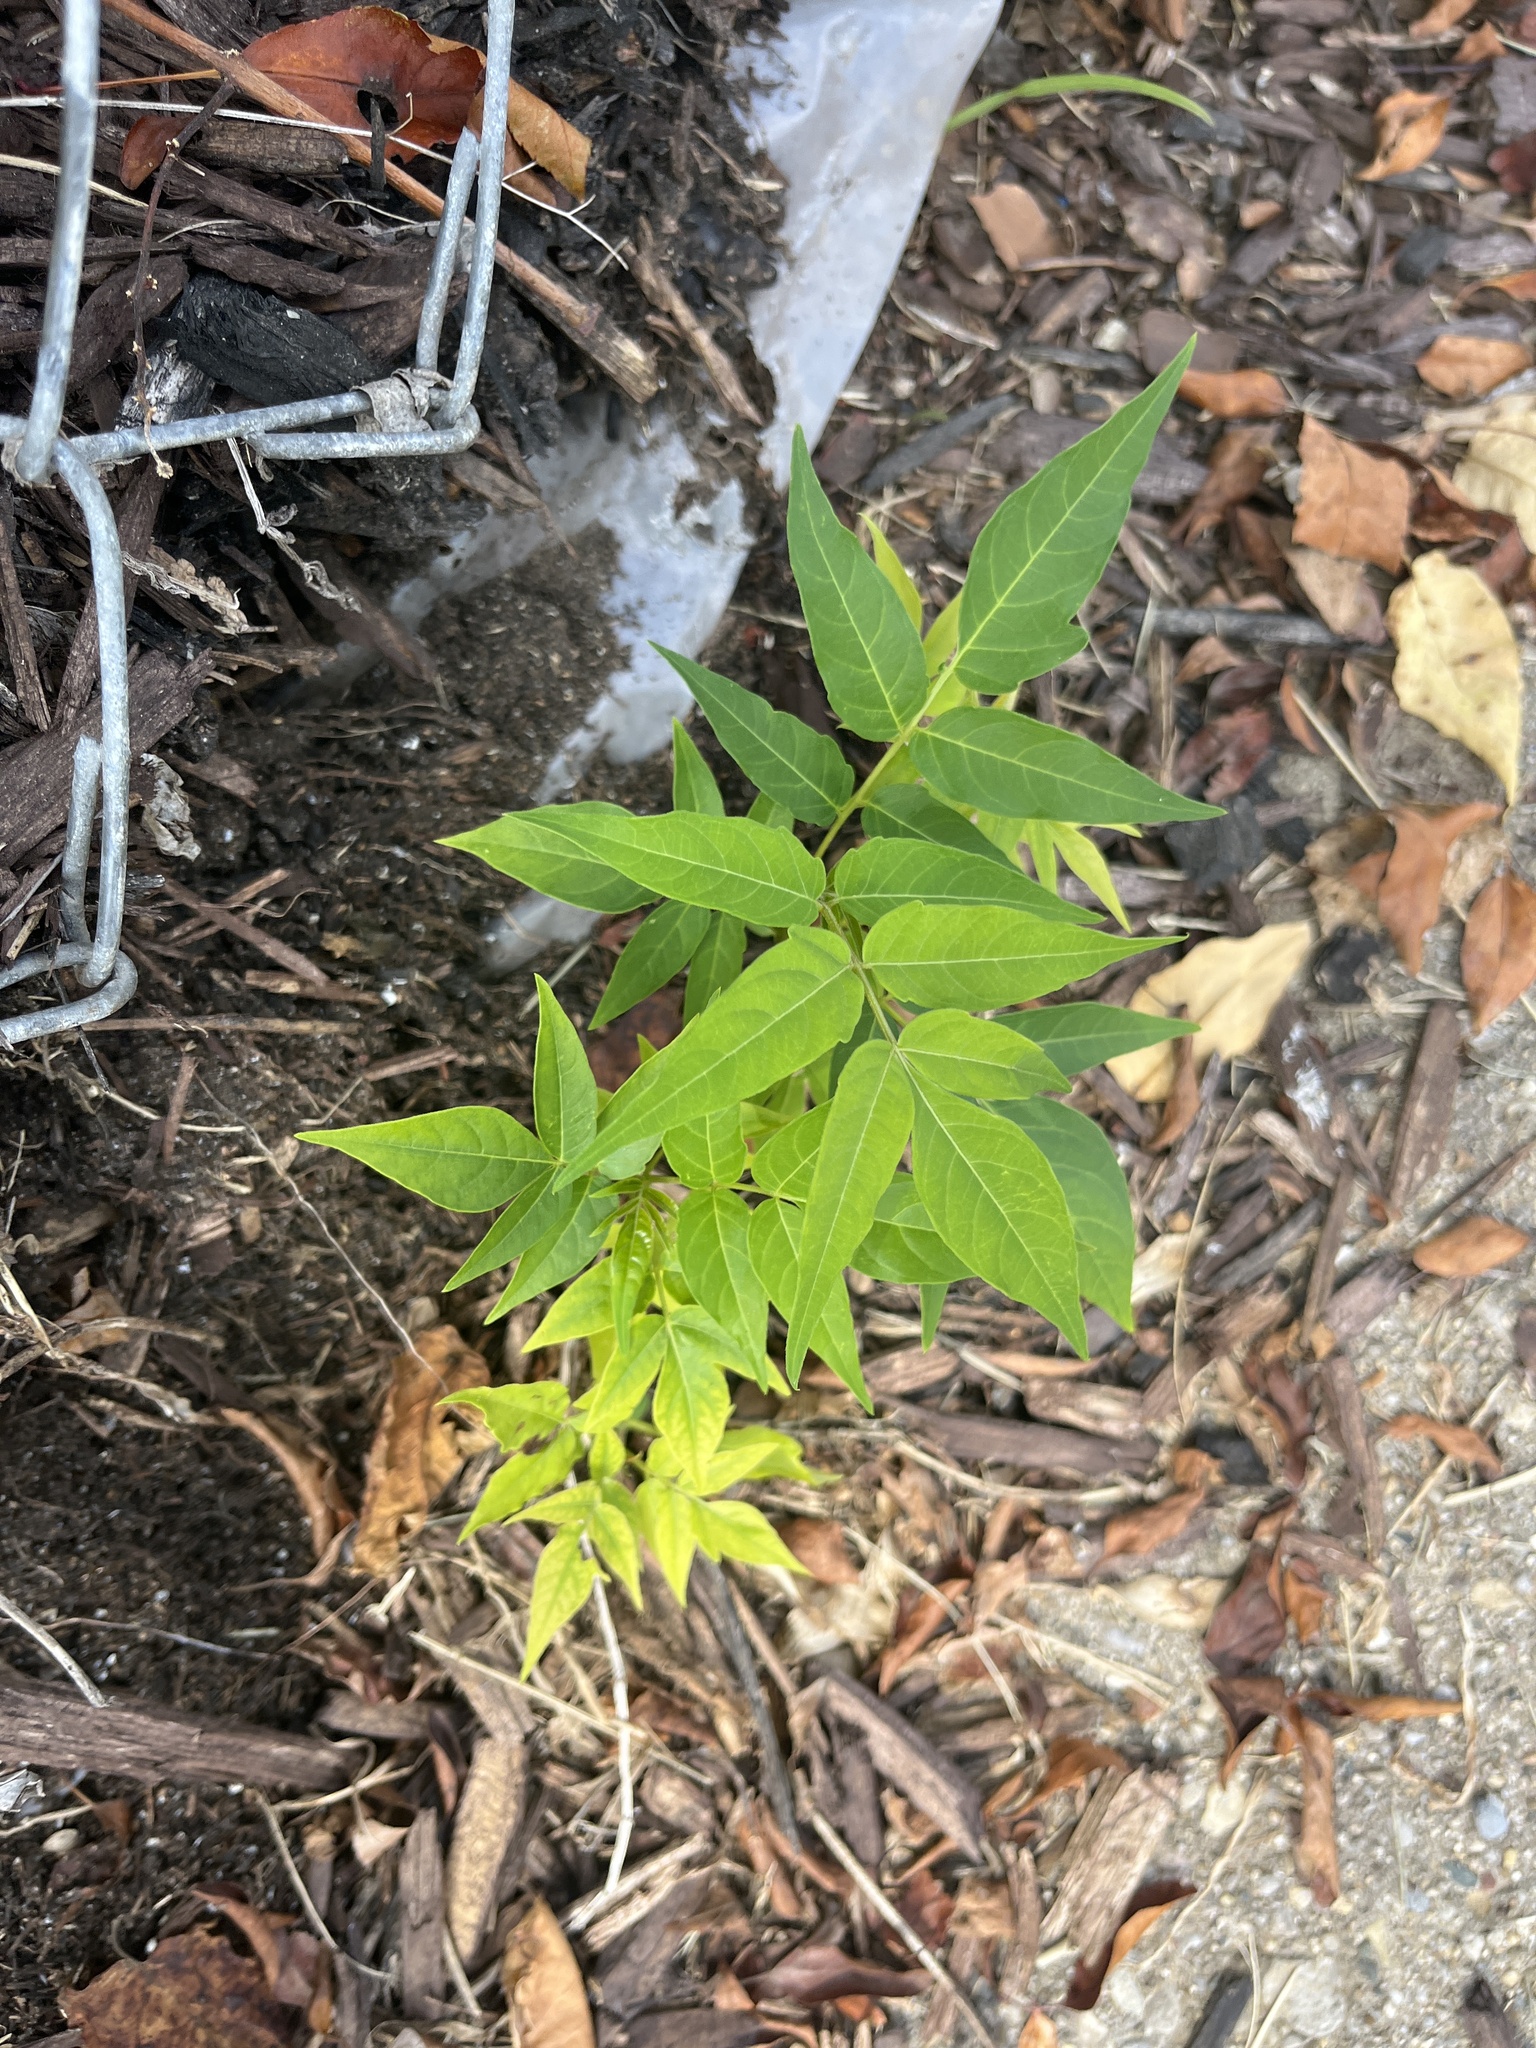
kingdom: Plantae
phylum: Tracheophyta
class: Magnoliopsida
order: Sapindales
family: Simaroubaceae
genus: Ailanthus
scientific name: Ailanthus altissima
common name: Tree-of-heaven
